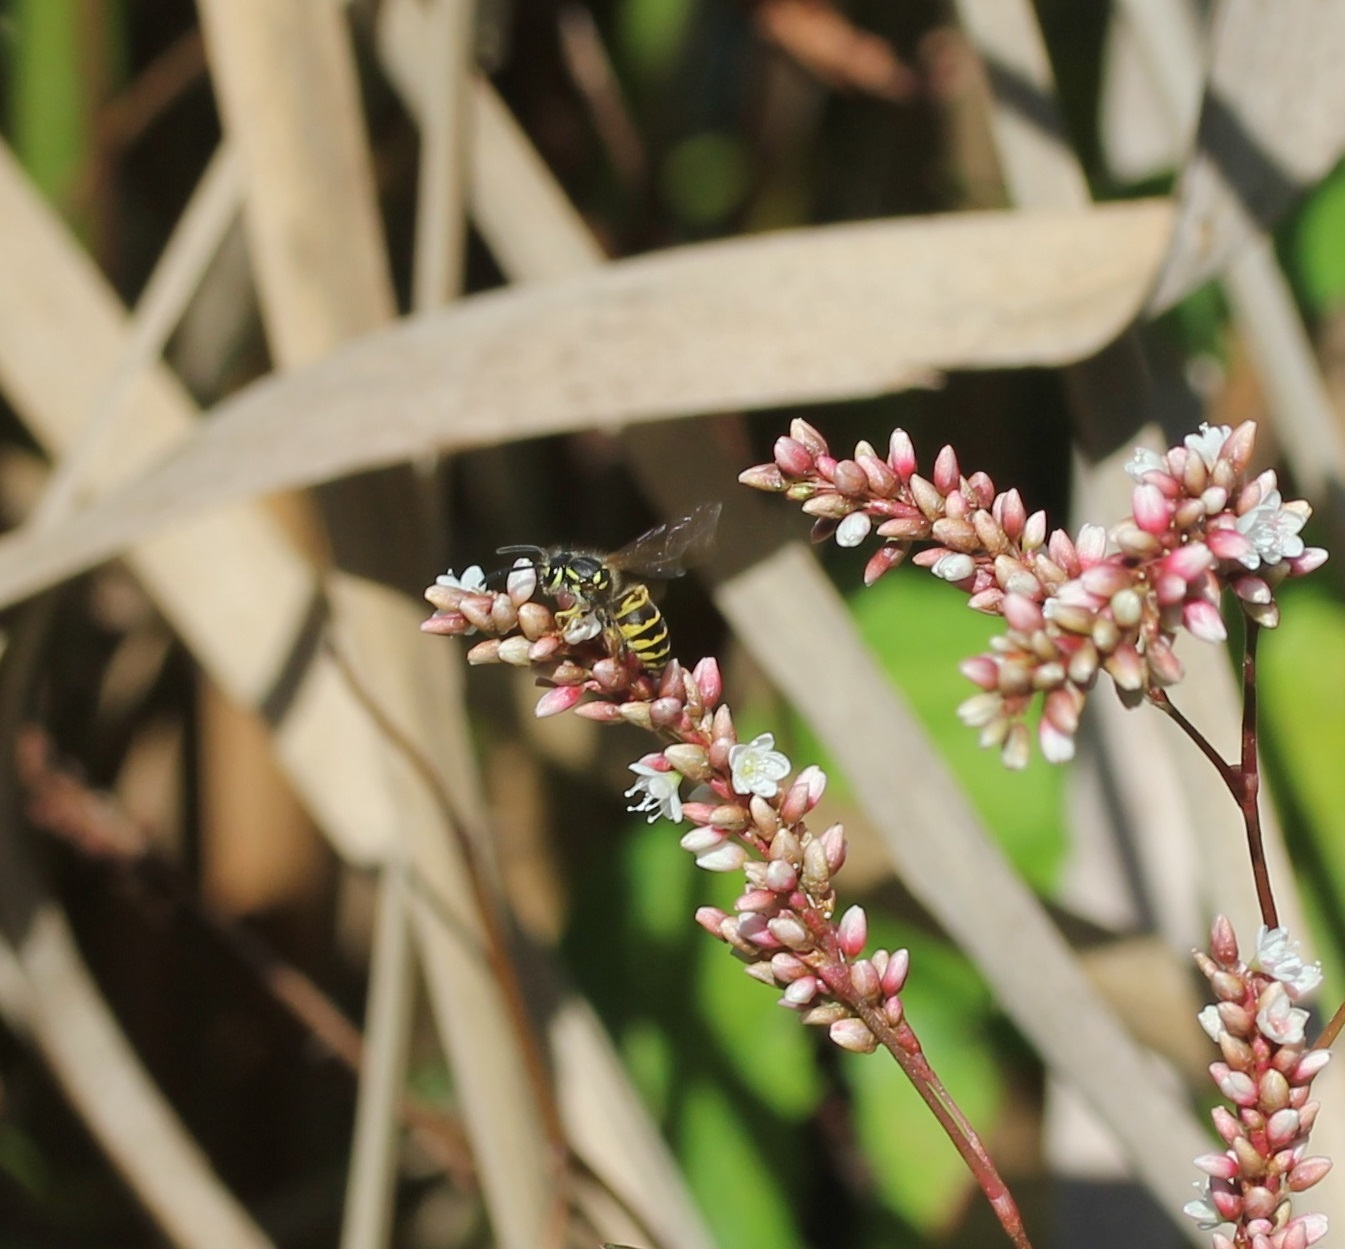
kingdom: Animalia
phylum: Arthropoda
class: Insecta
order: Hymenoptera
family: Vespidae
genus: Vespula
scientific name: Vespula maculifrons
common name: Eastern yellowjacket
